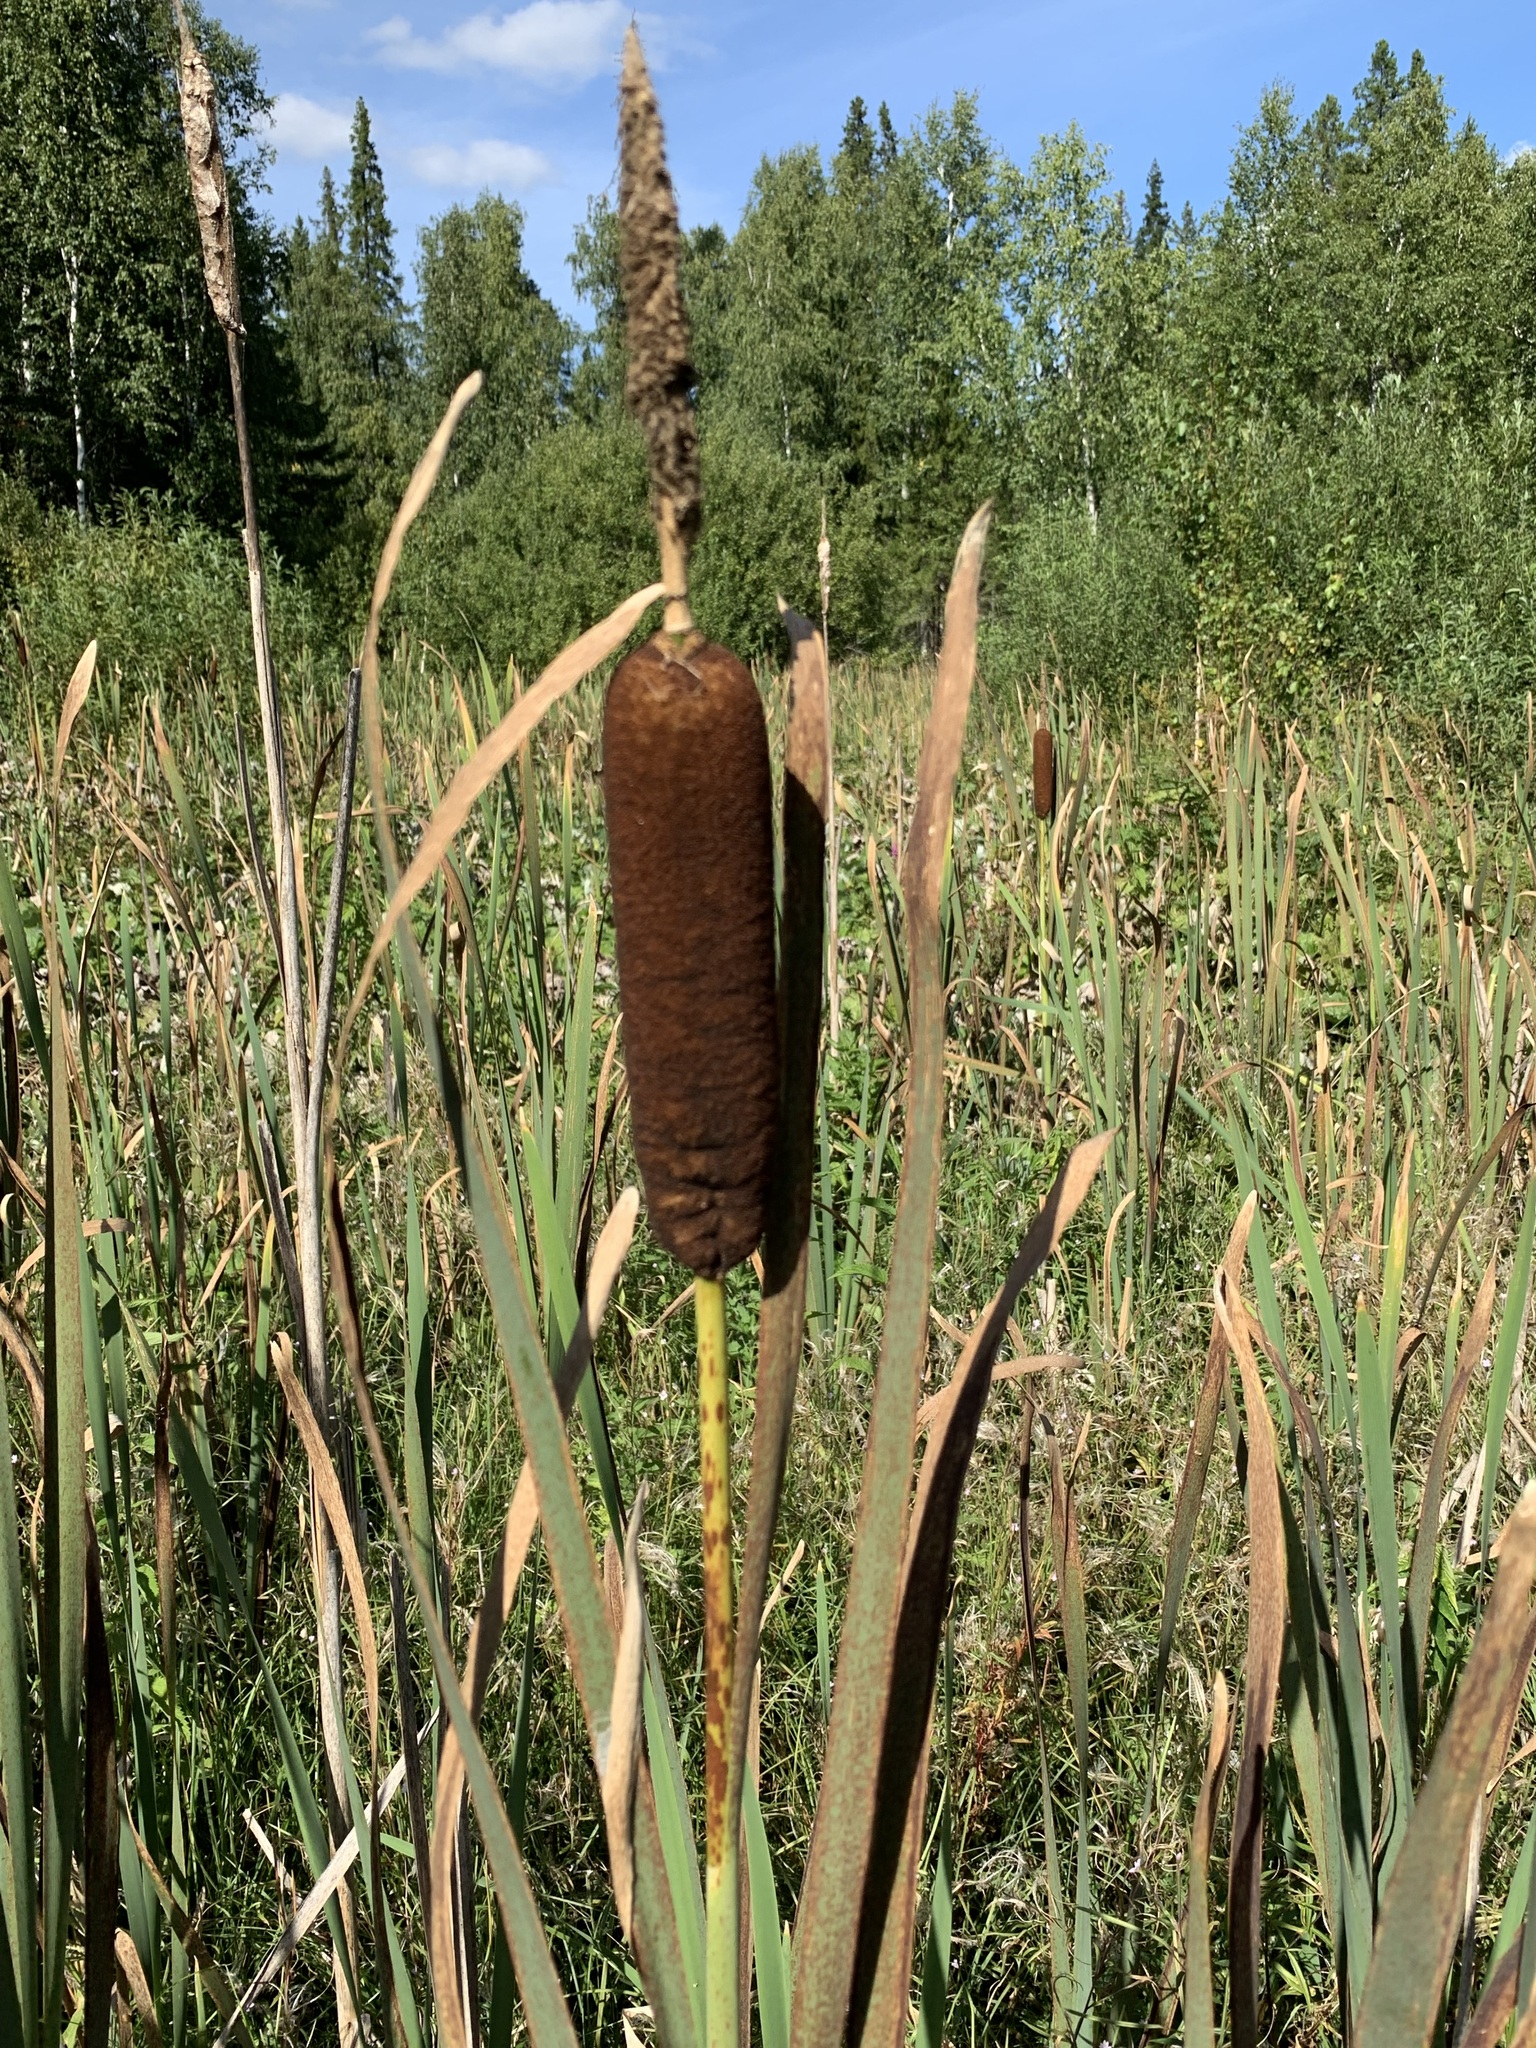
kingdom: Plantae
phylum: Tracheophyta
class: Liliopsida
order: Poales
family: Typhaceae
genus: Typha
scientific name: Typha latifolia
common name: Broadleaf cattail
